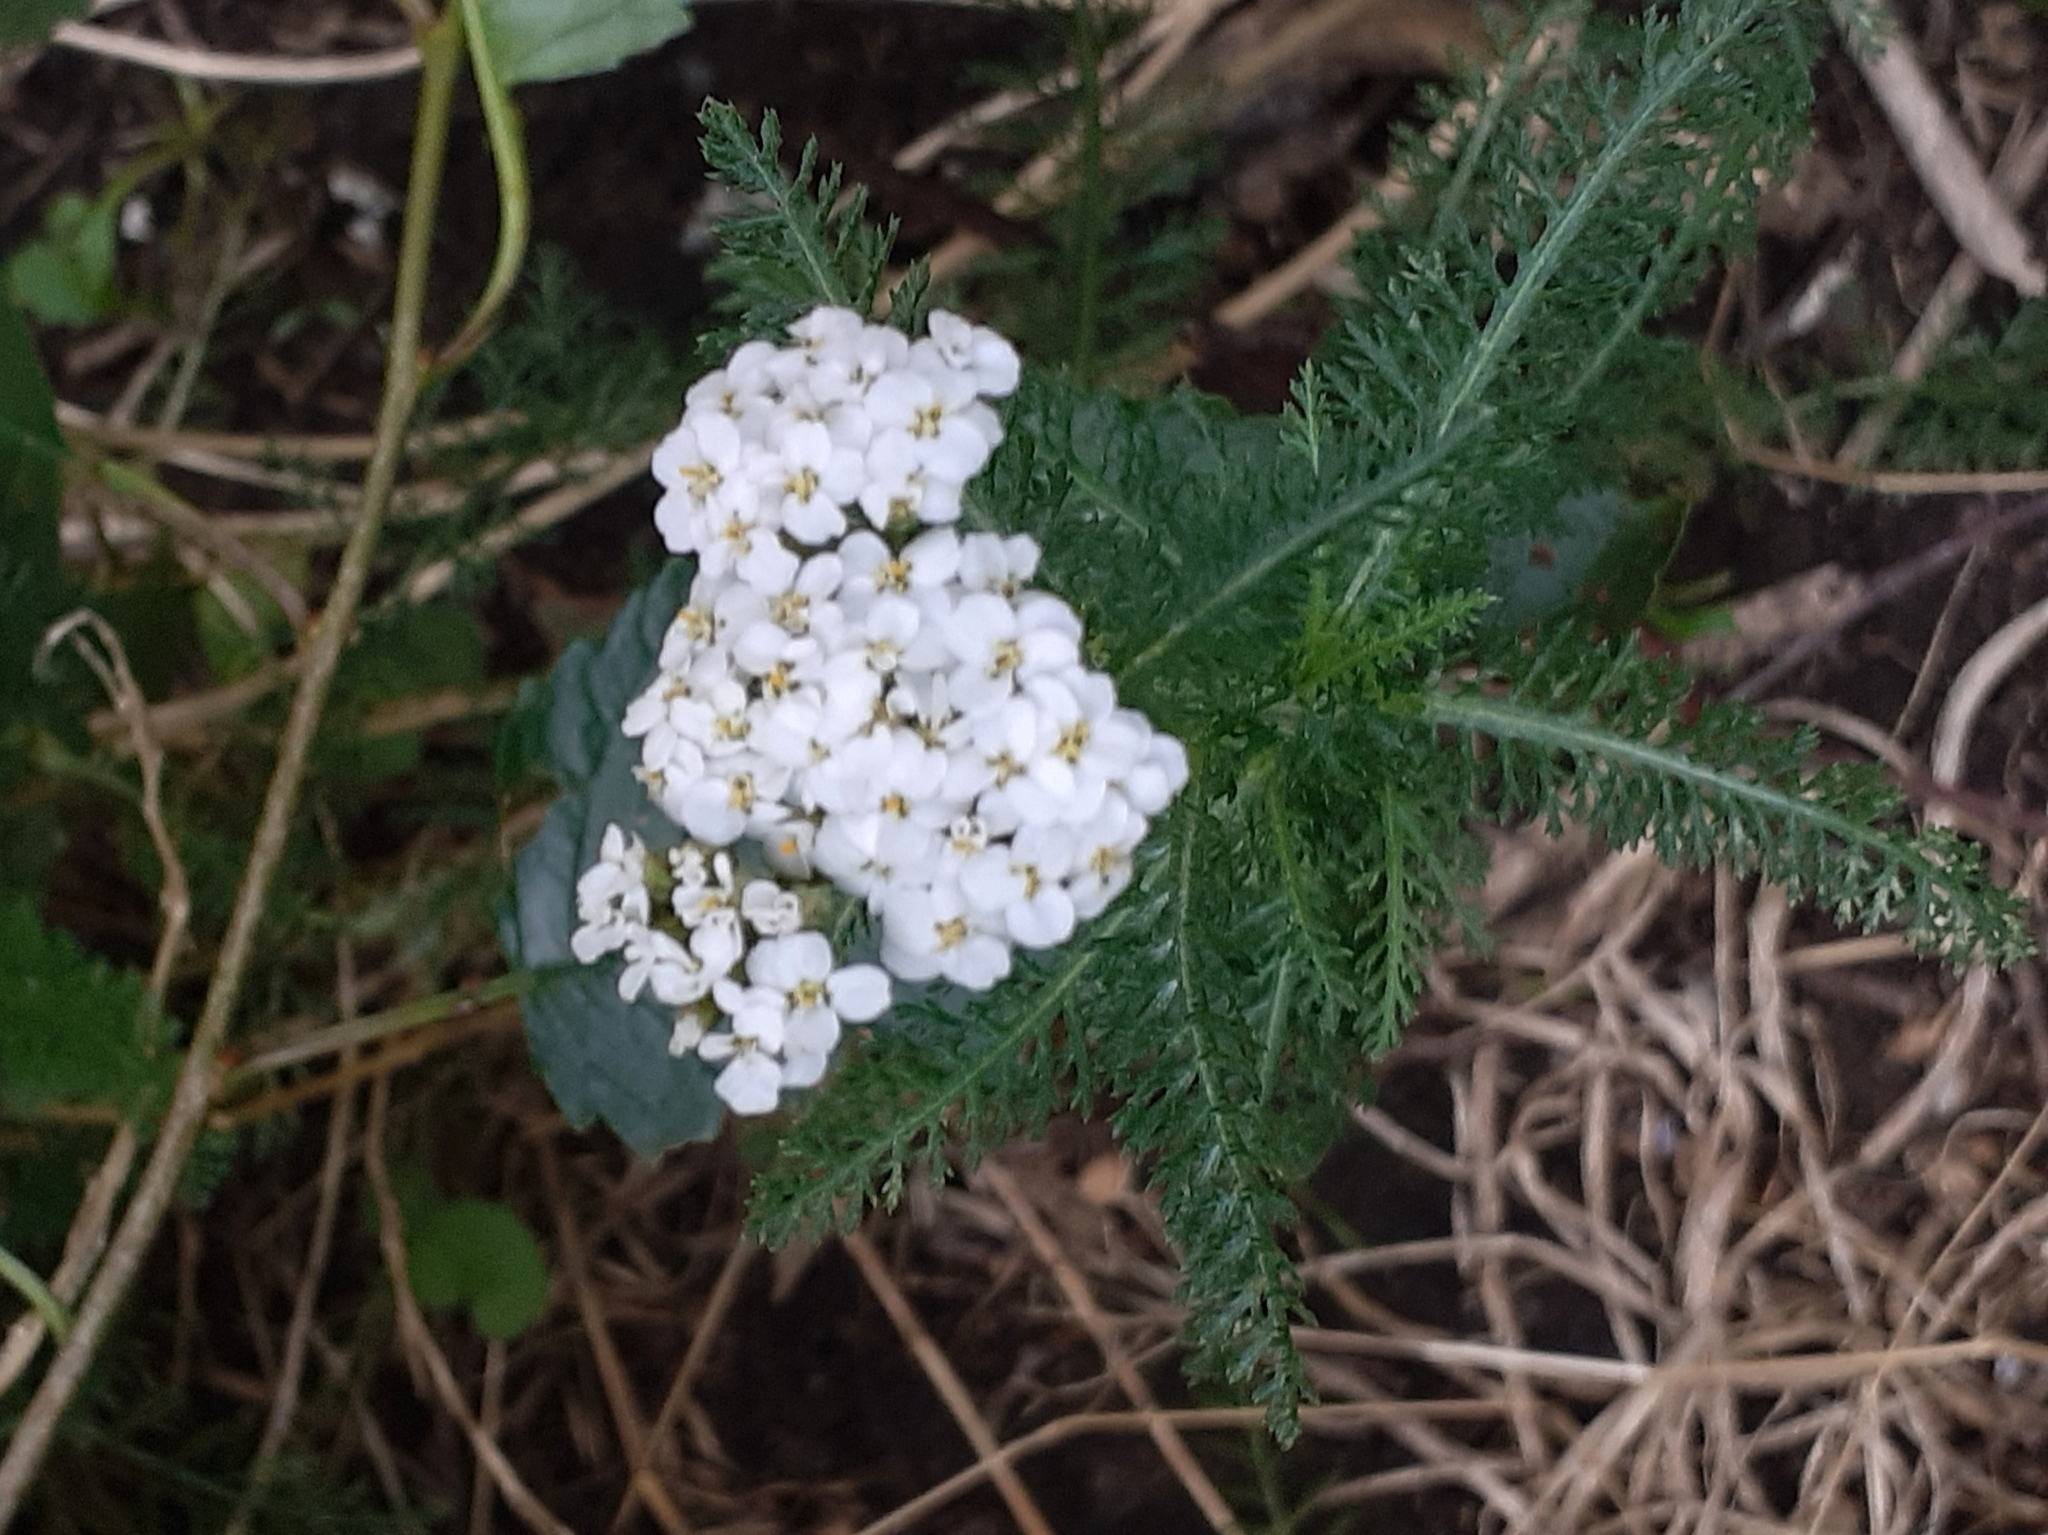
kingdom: Plantae
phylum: Tracheophyta
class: Magnoliopsida
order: Asterales
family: Asteraceae
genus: Achillea
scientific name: Achillea millefolium
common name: Yarrow
